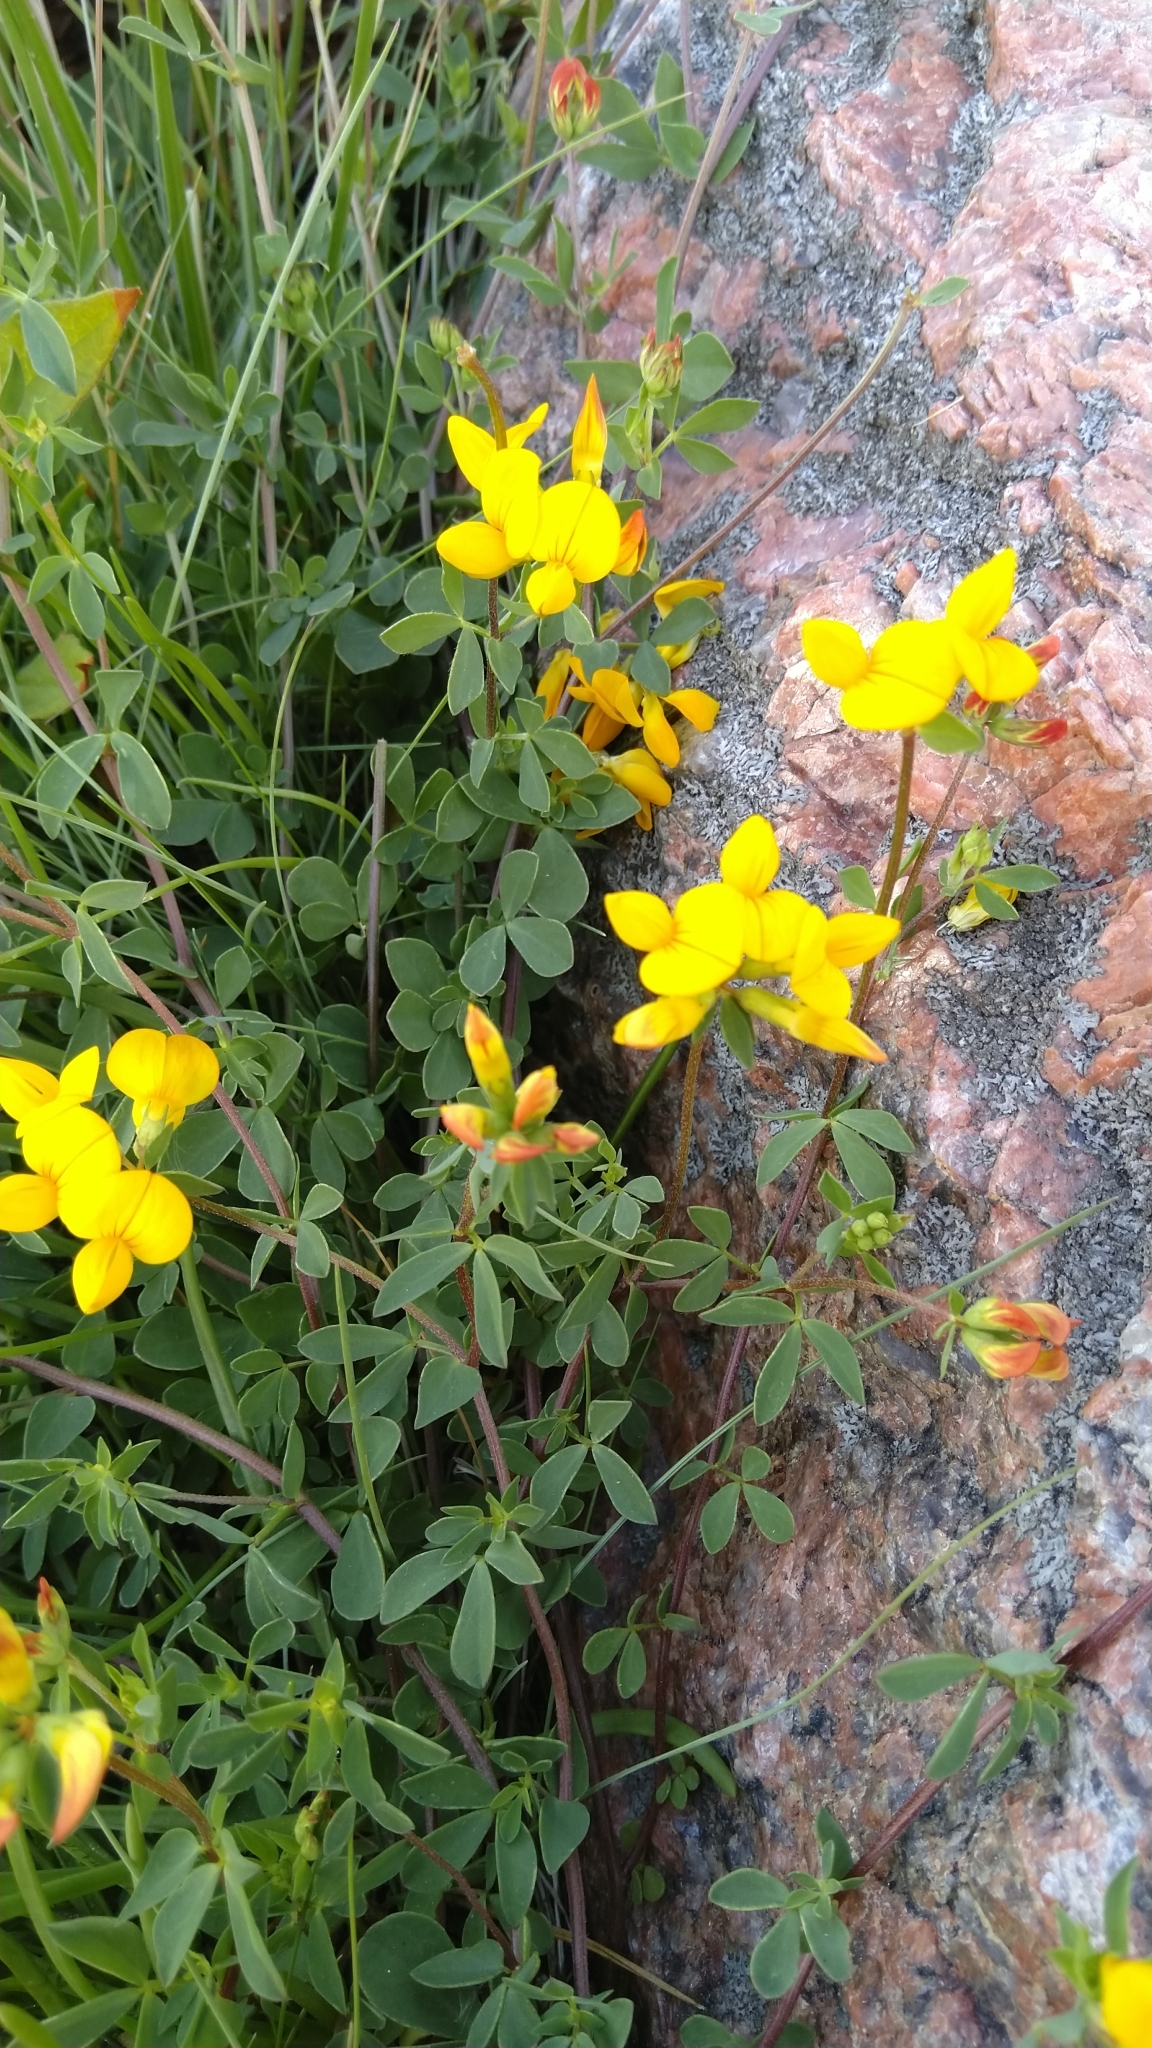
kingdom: Plantae
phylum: Tracheophyta
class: Magnoliopsida
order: Fabales
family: Fabaceae
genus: Lotus
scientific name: Lotus corniculatus
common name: Common bird's-foot-trefoil
